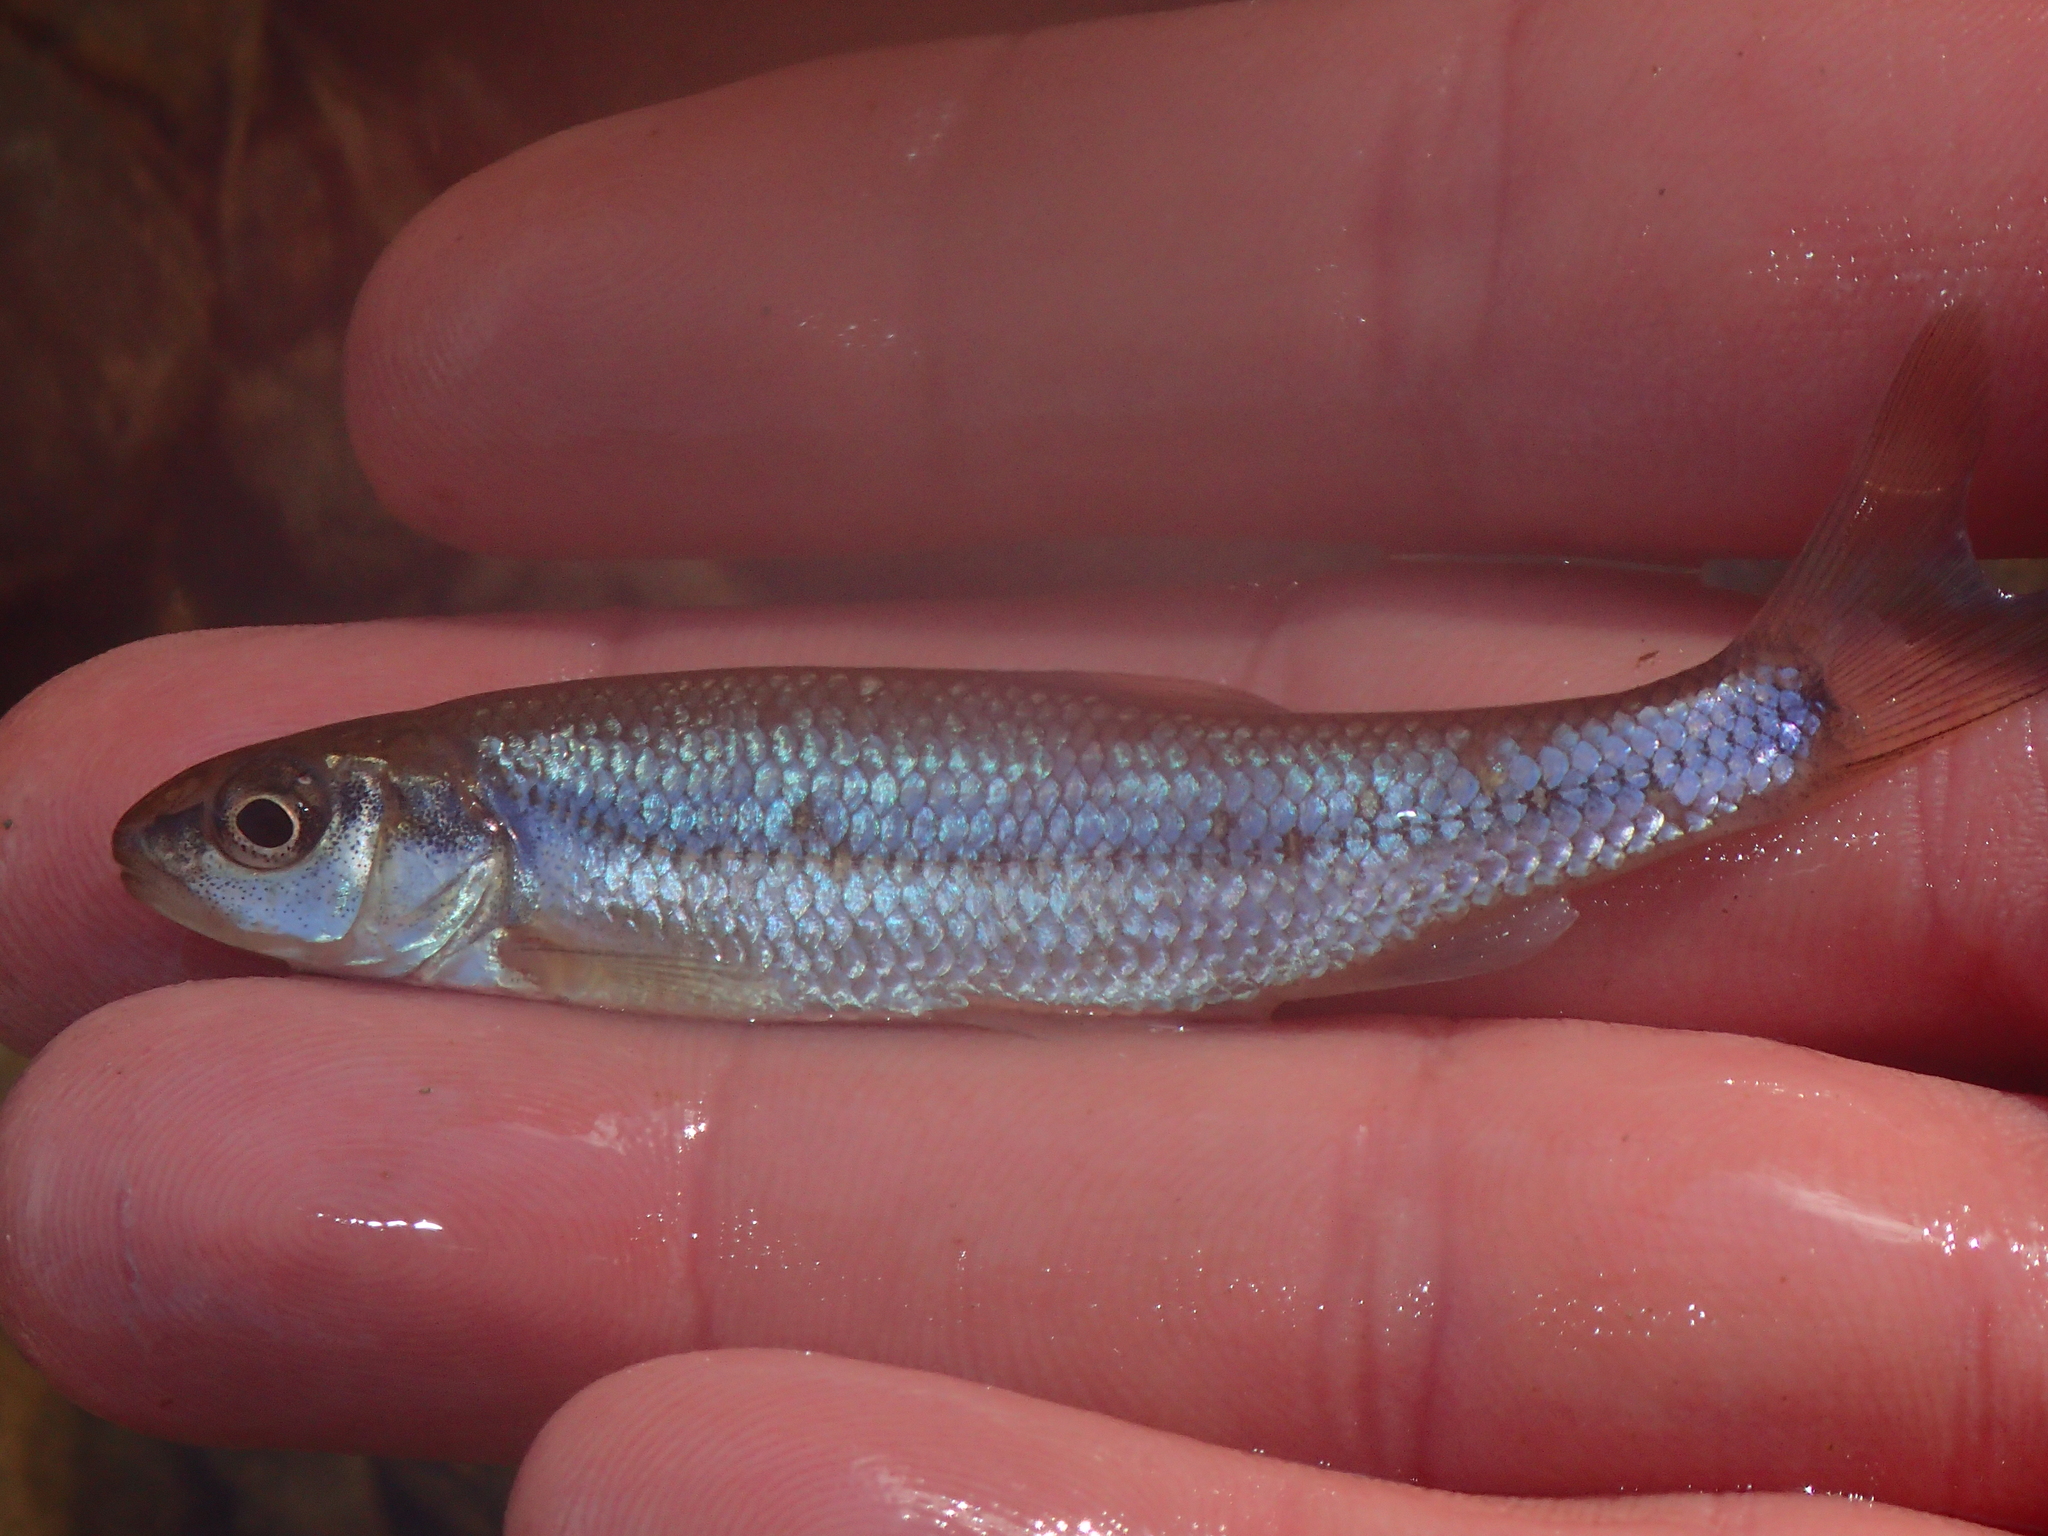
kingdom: Animalia
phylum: Chordata
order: Cypriniformes
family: Cyprinidae
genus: Semotilus
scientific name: Semotilus corporalis
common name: Fallfish
